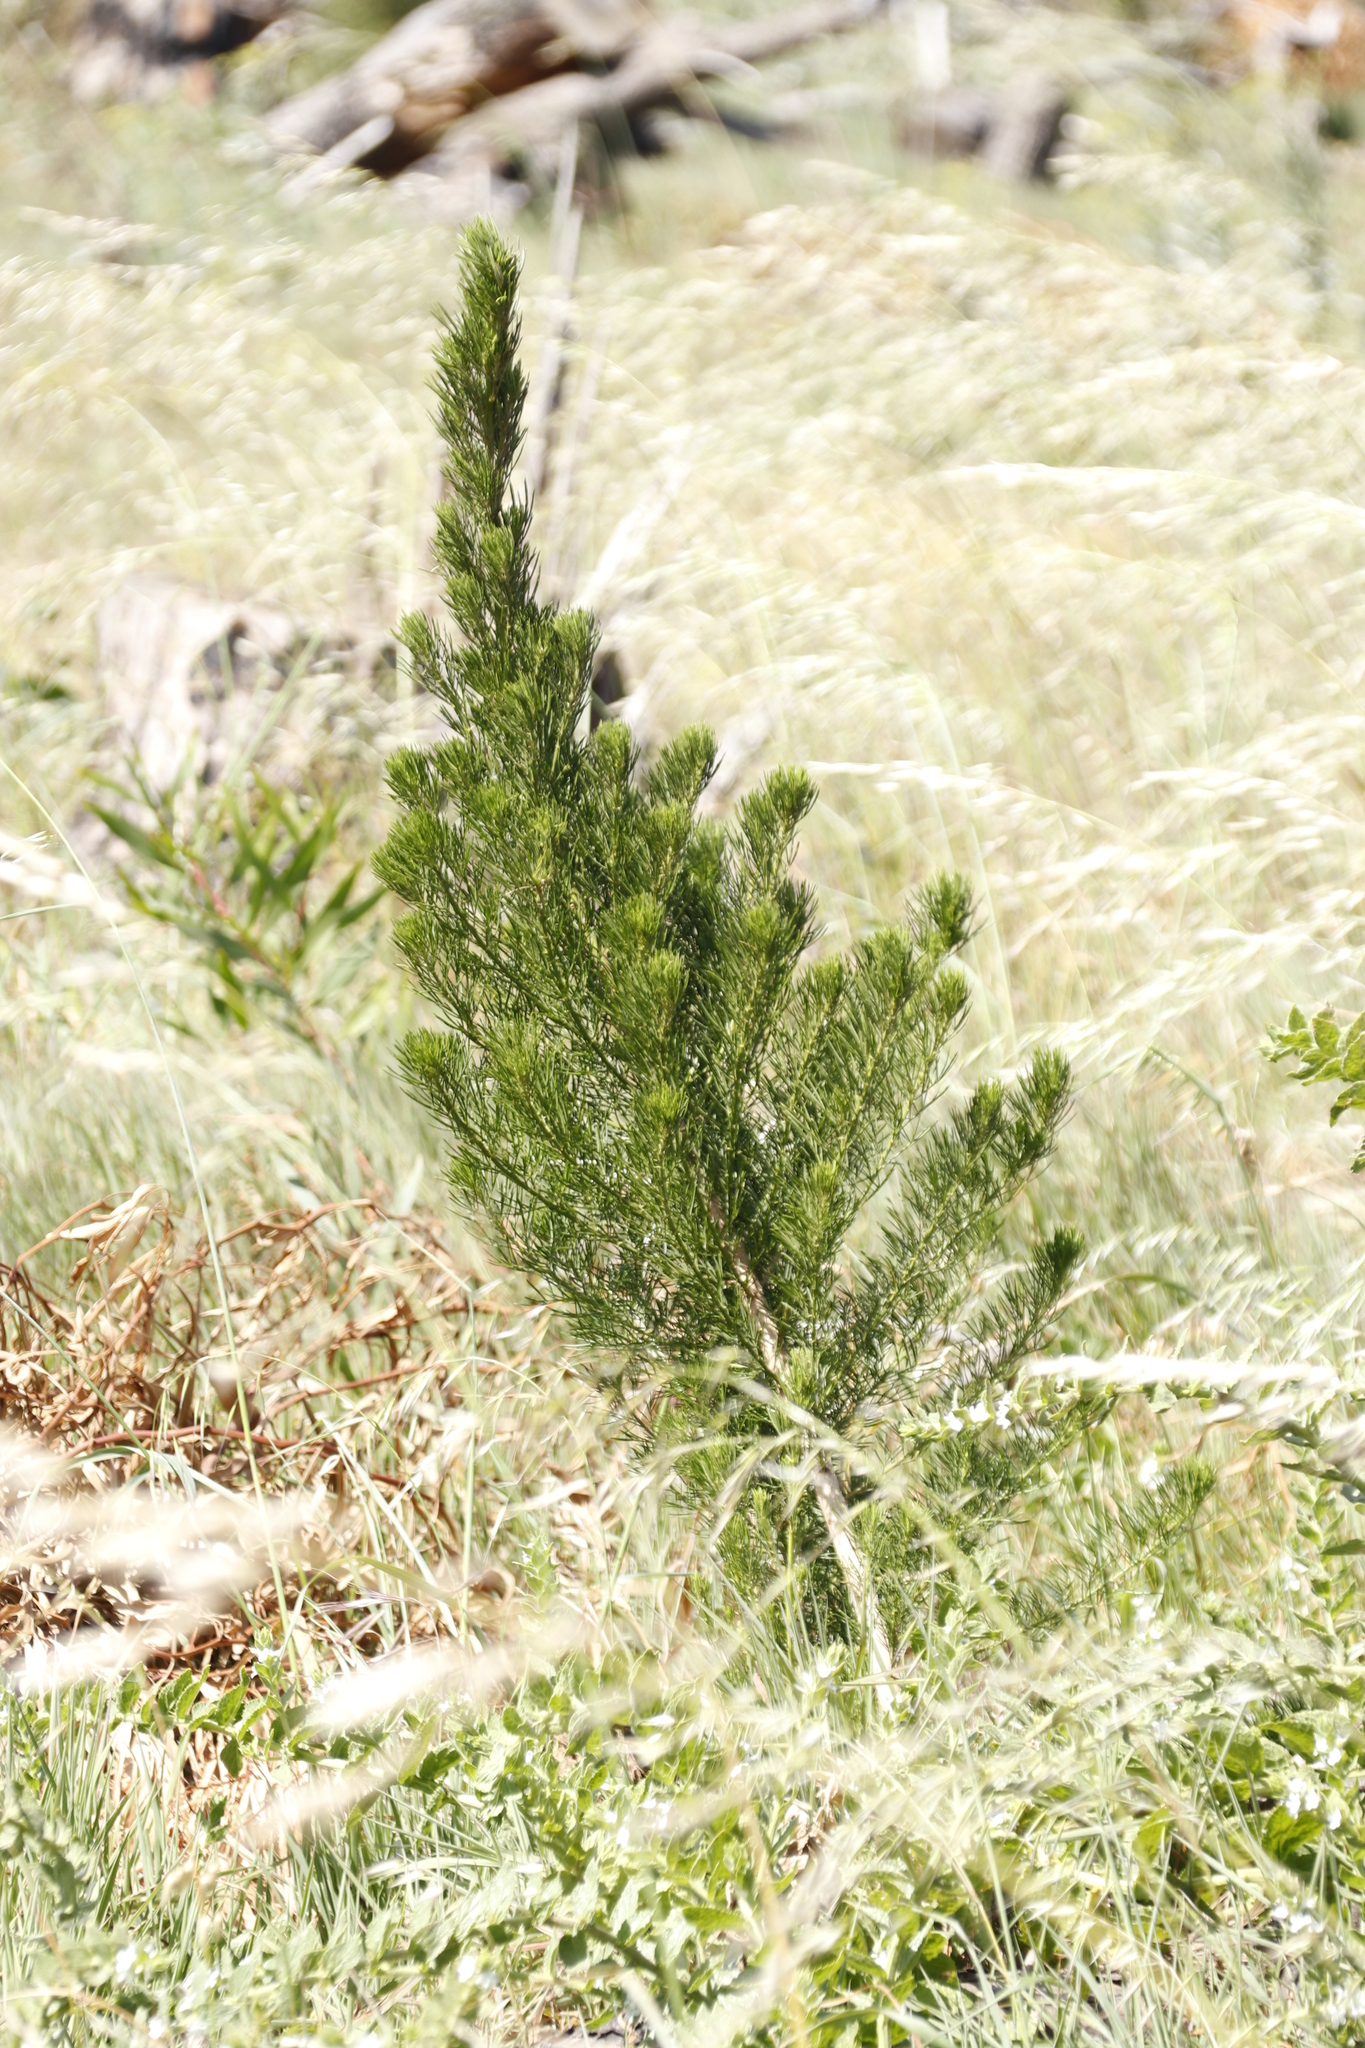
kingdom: Plantae
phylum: Tracheophyta
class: Magnoliopsida
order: Fabales
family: Fabaceae
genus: Psoralea
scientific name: Psoralea pinnata
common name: African scurfpea
